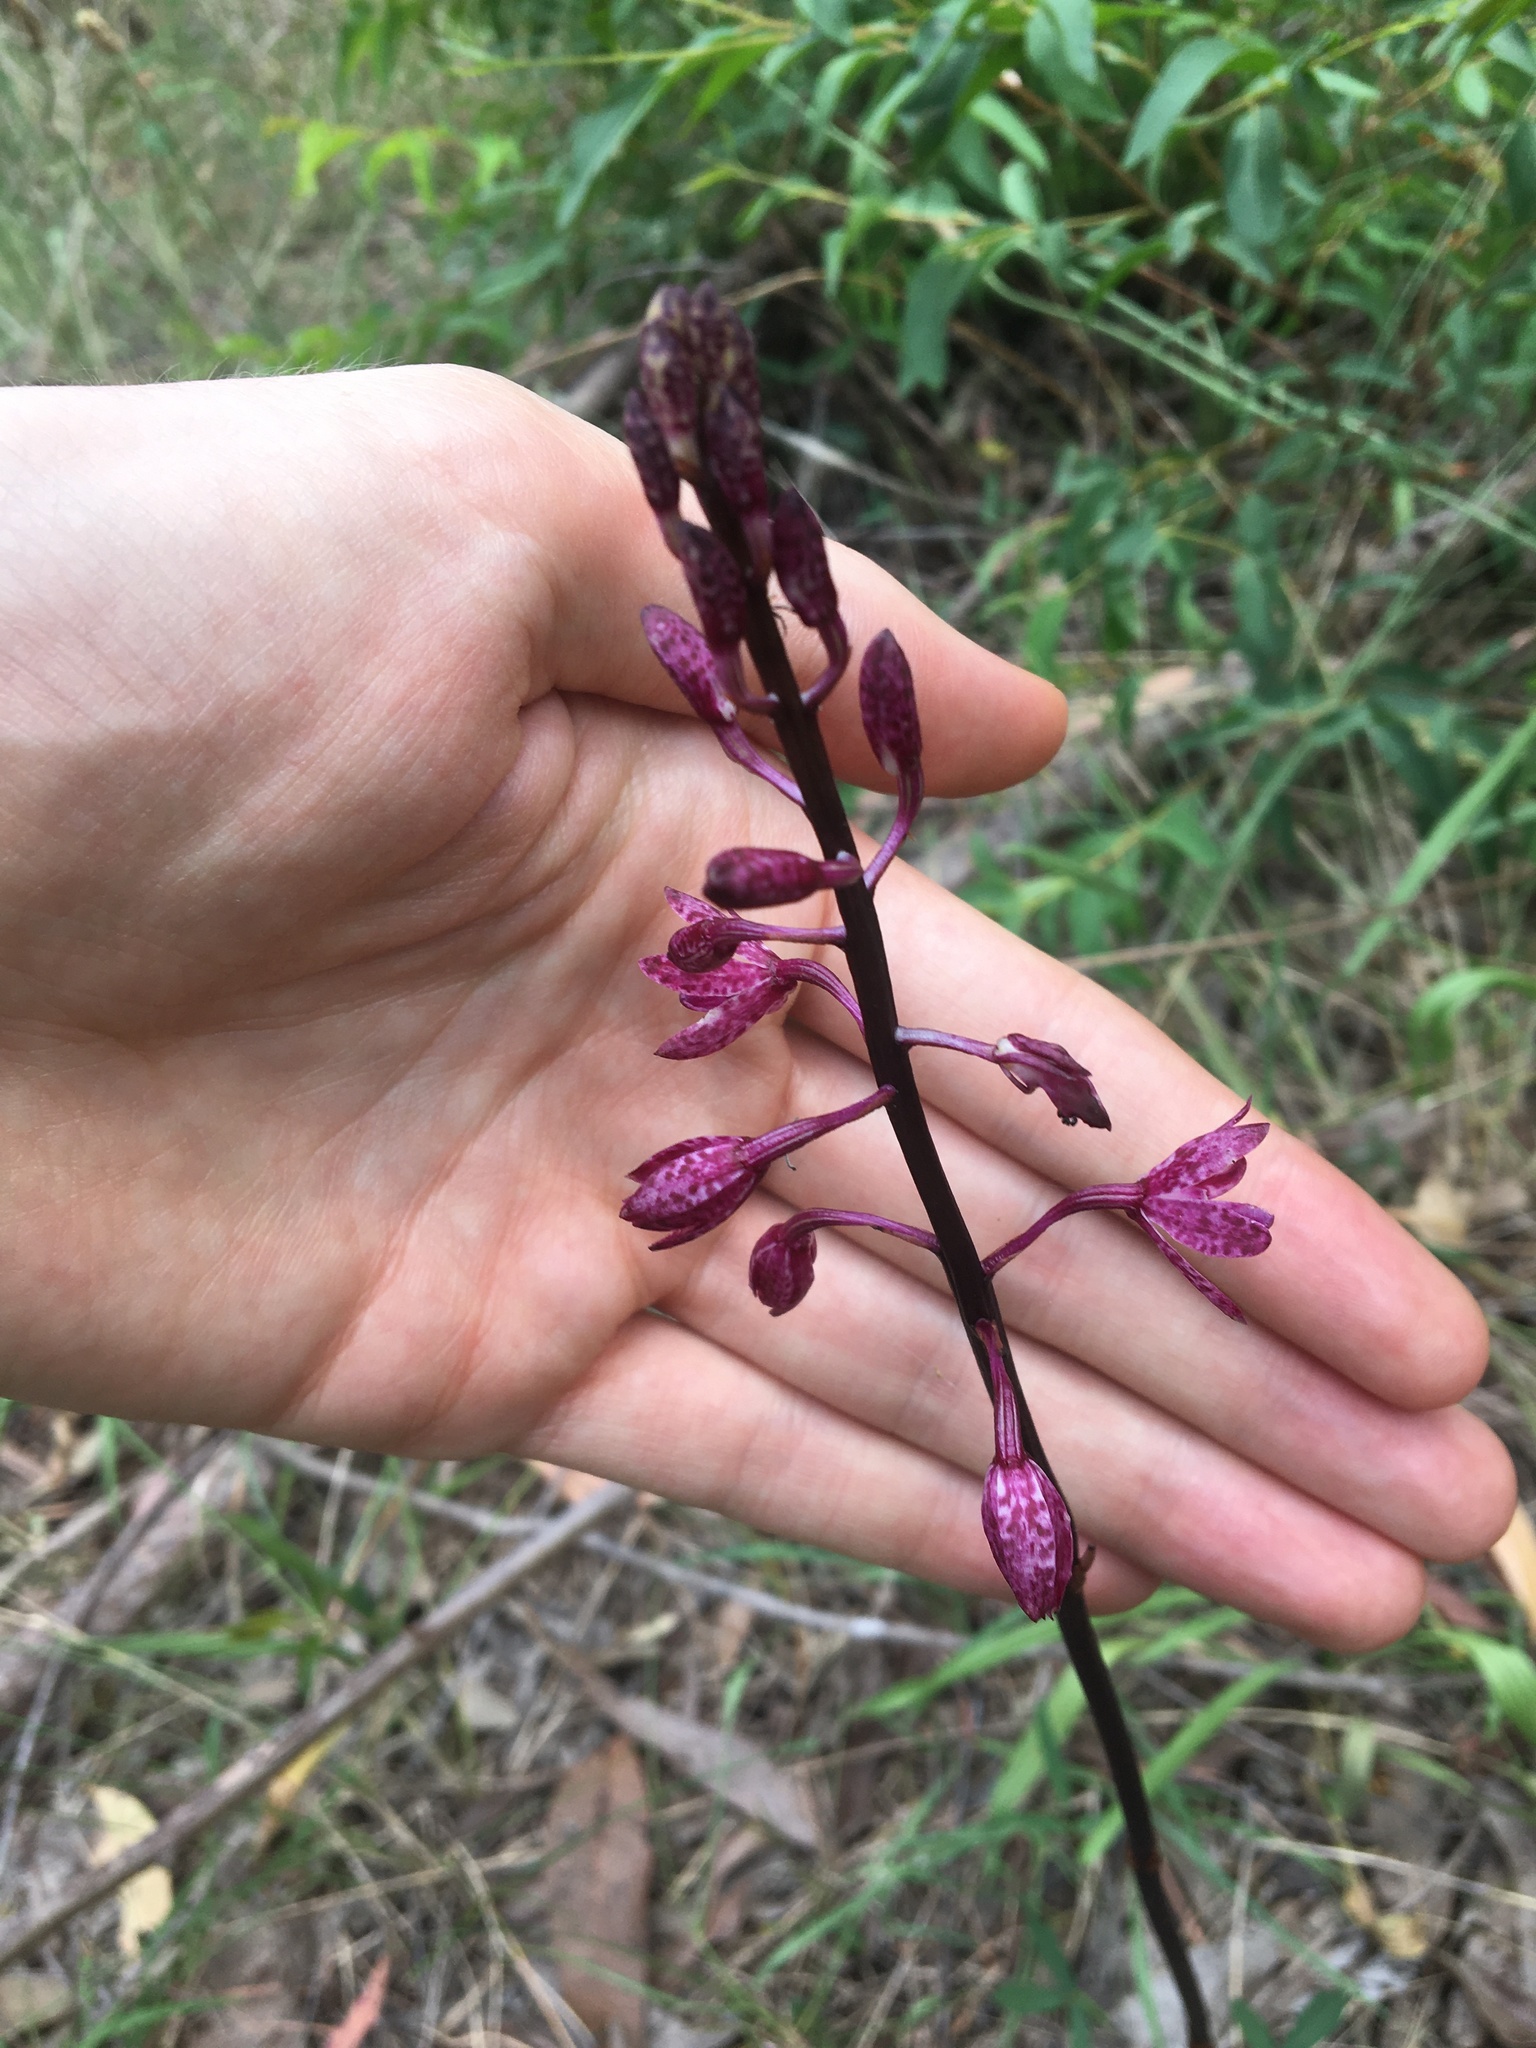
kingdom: Plantae
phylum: Tracheophyta
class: Liliopsida
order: Asparagales
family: Orchidaceae
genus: Dipodium
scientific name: Dipodium squamatum
